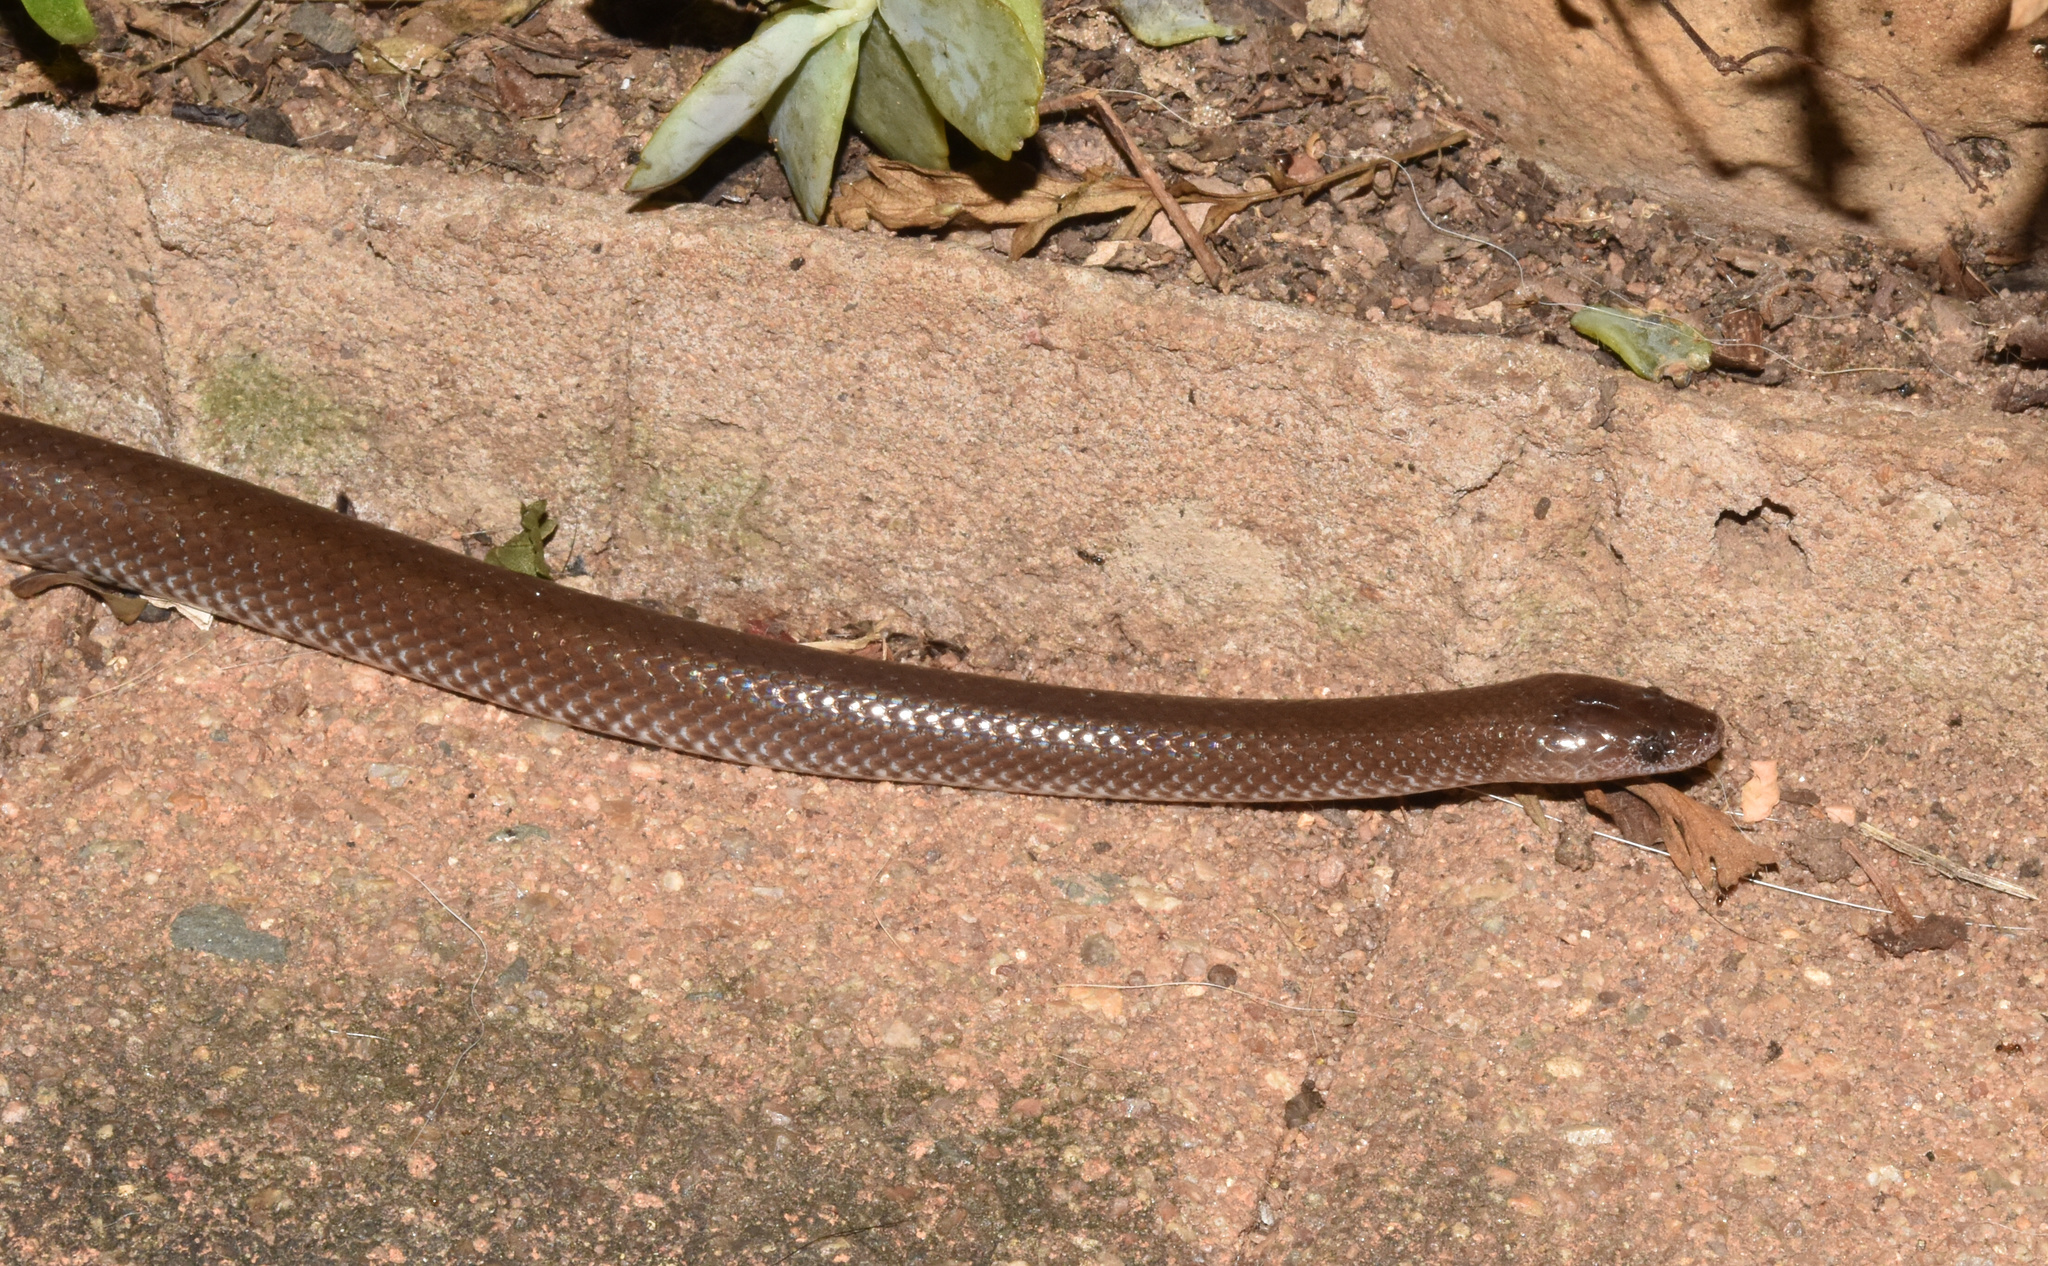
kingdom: Animalia
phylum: Chordata
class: Squamata
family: Lamprophiidae
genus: Lycophidion
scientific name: Lycophidion capense
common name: Cape wolf snake
